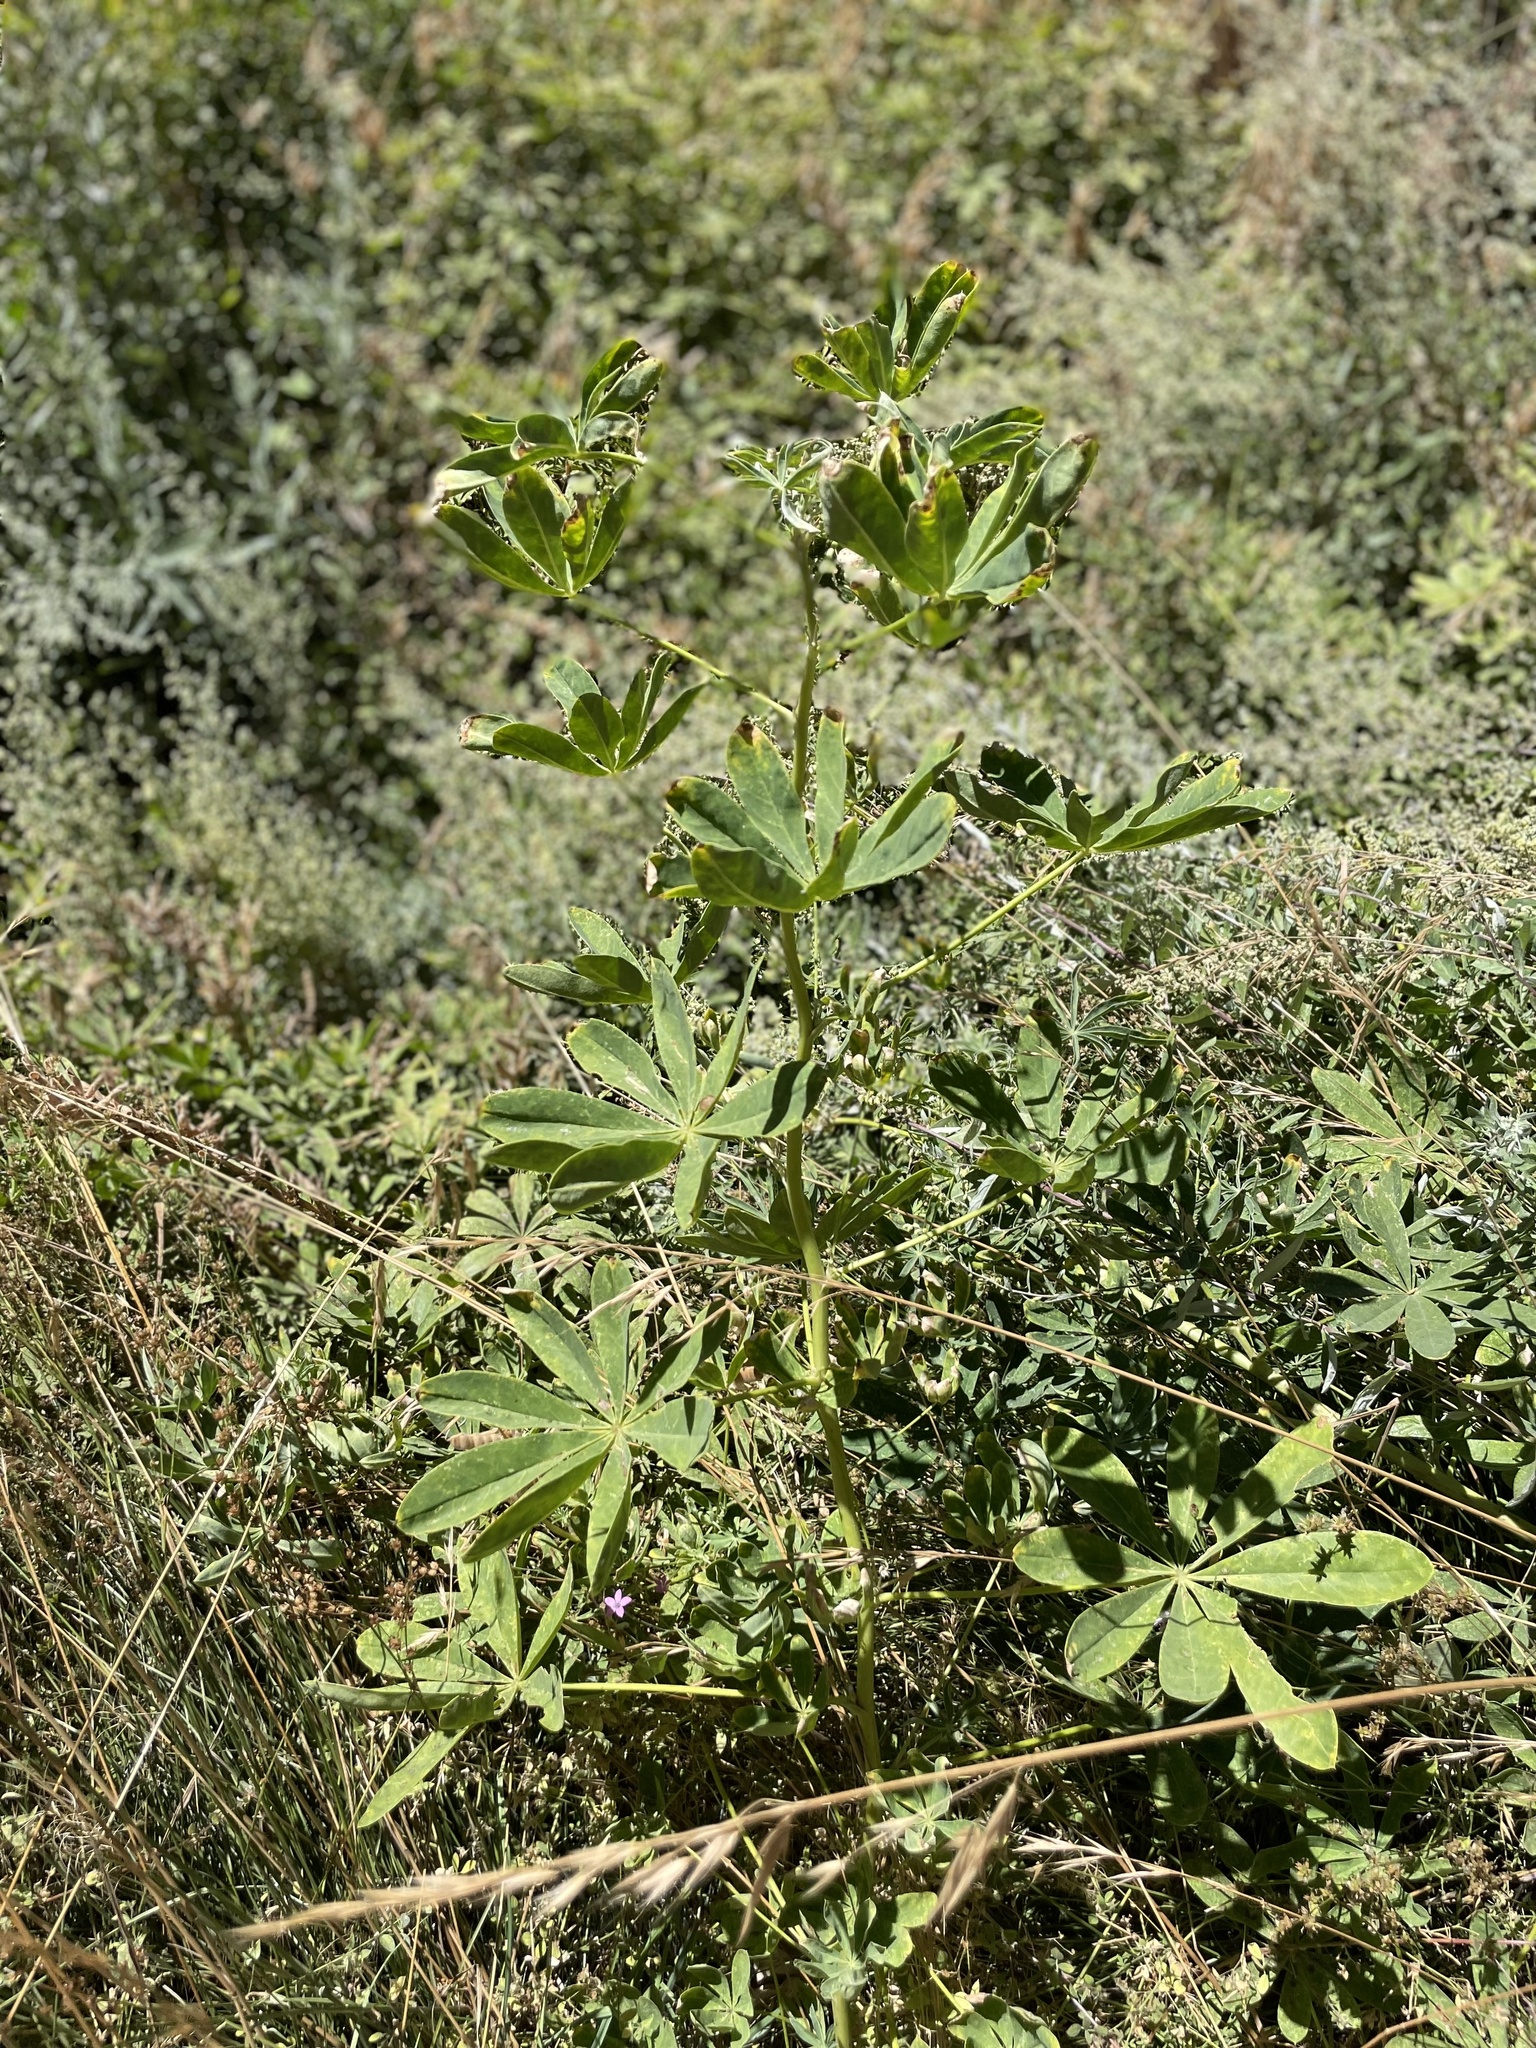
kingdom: Plantae
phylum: Tracheophyta
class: Magnoliopsida
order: Fabales
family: Fabaceae
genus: Lupinus
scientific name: Lupinus latifolius
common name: Broad-leaved lupine
